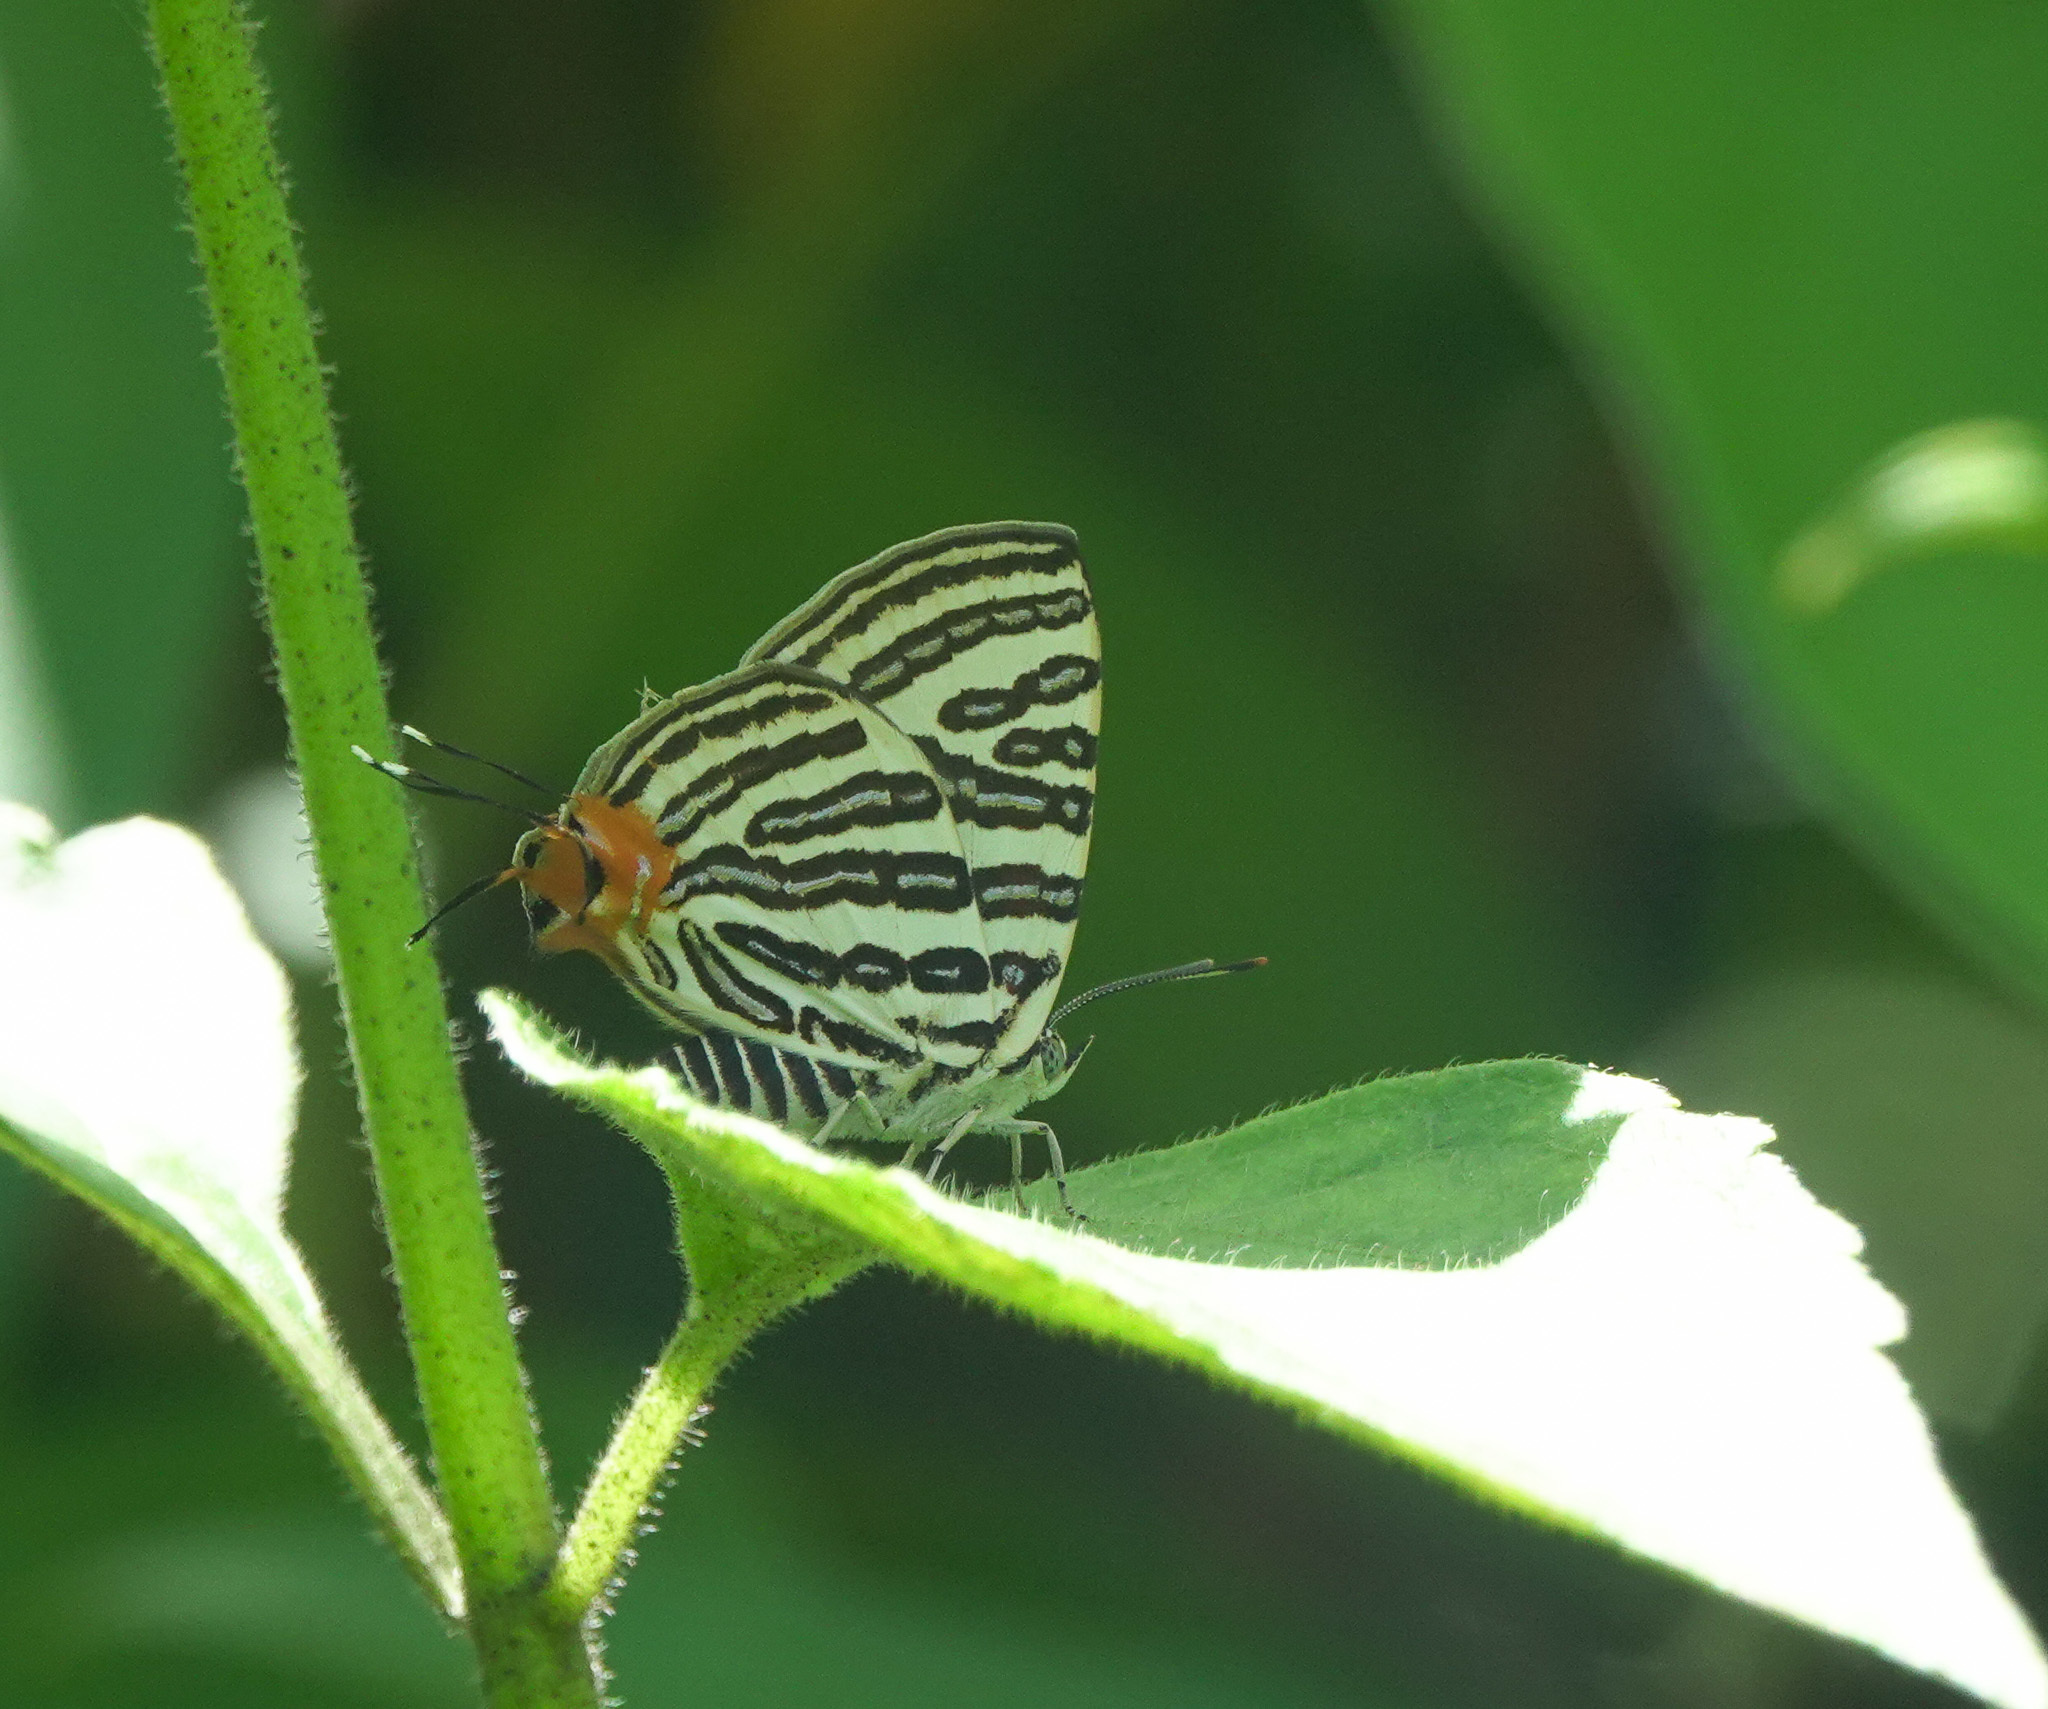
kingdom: Animalia
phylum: Arthropoda
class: Insecta
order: Lepidoptera
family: Lycaenidae
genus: Cigaritis
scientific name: Cigaritis syama
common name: Club silverline
